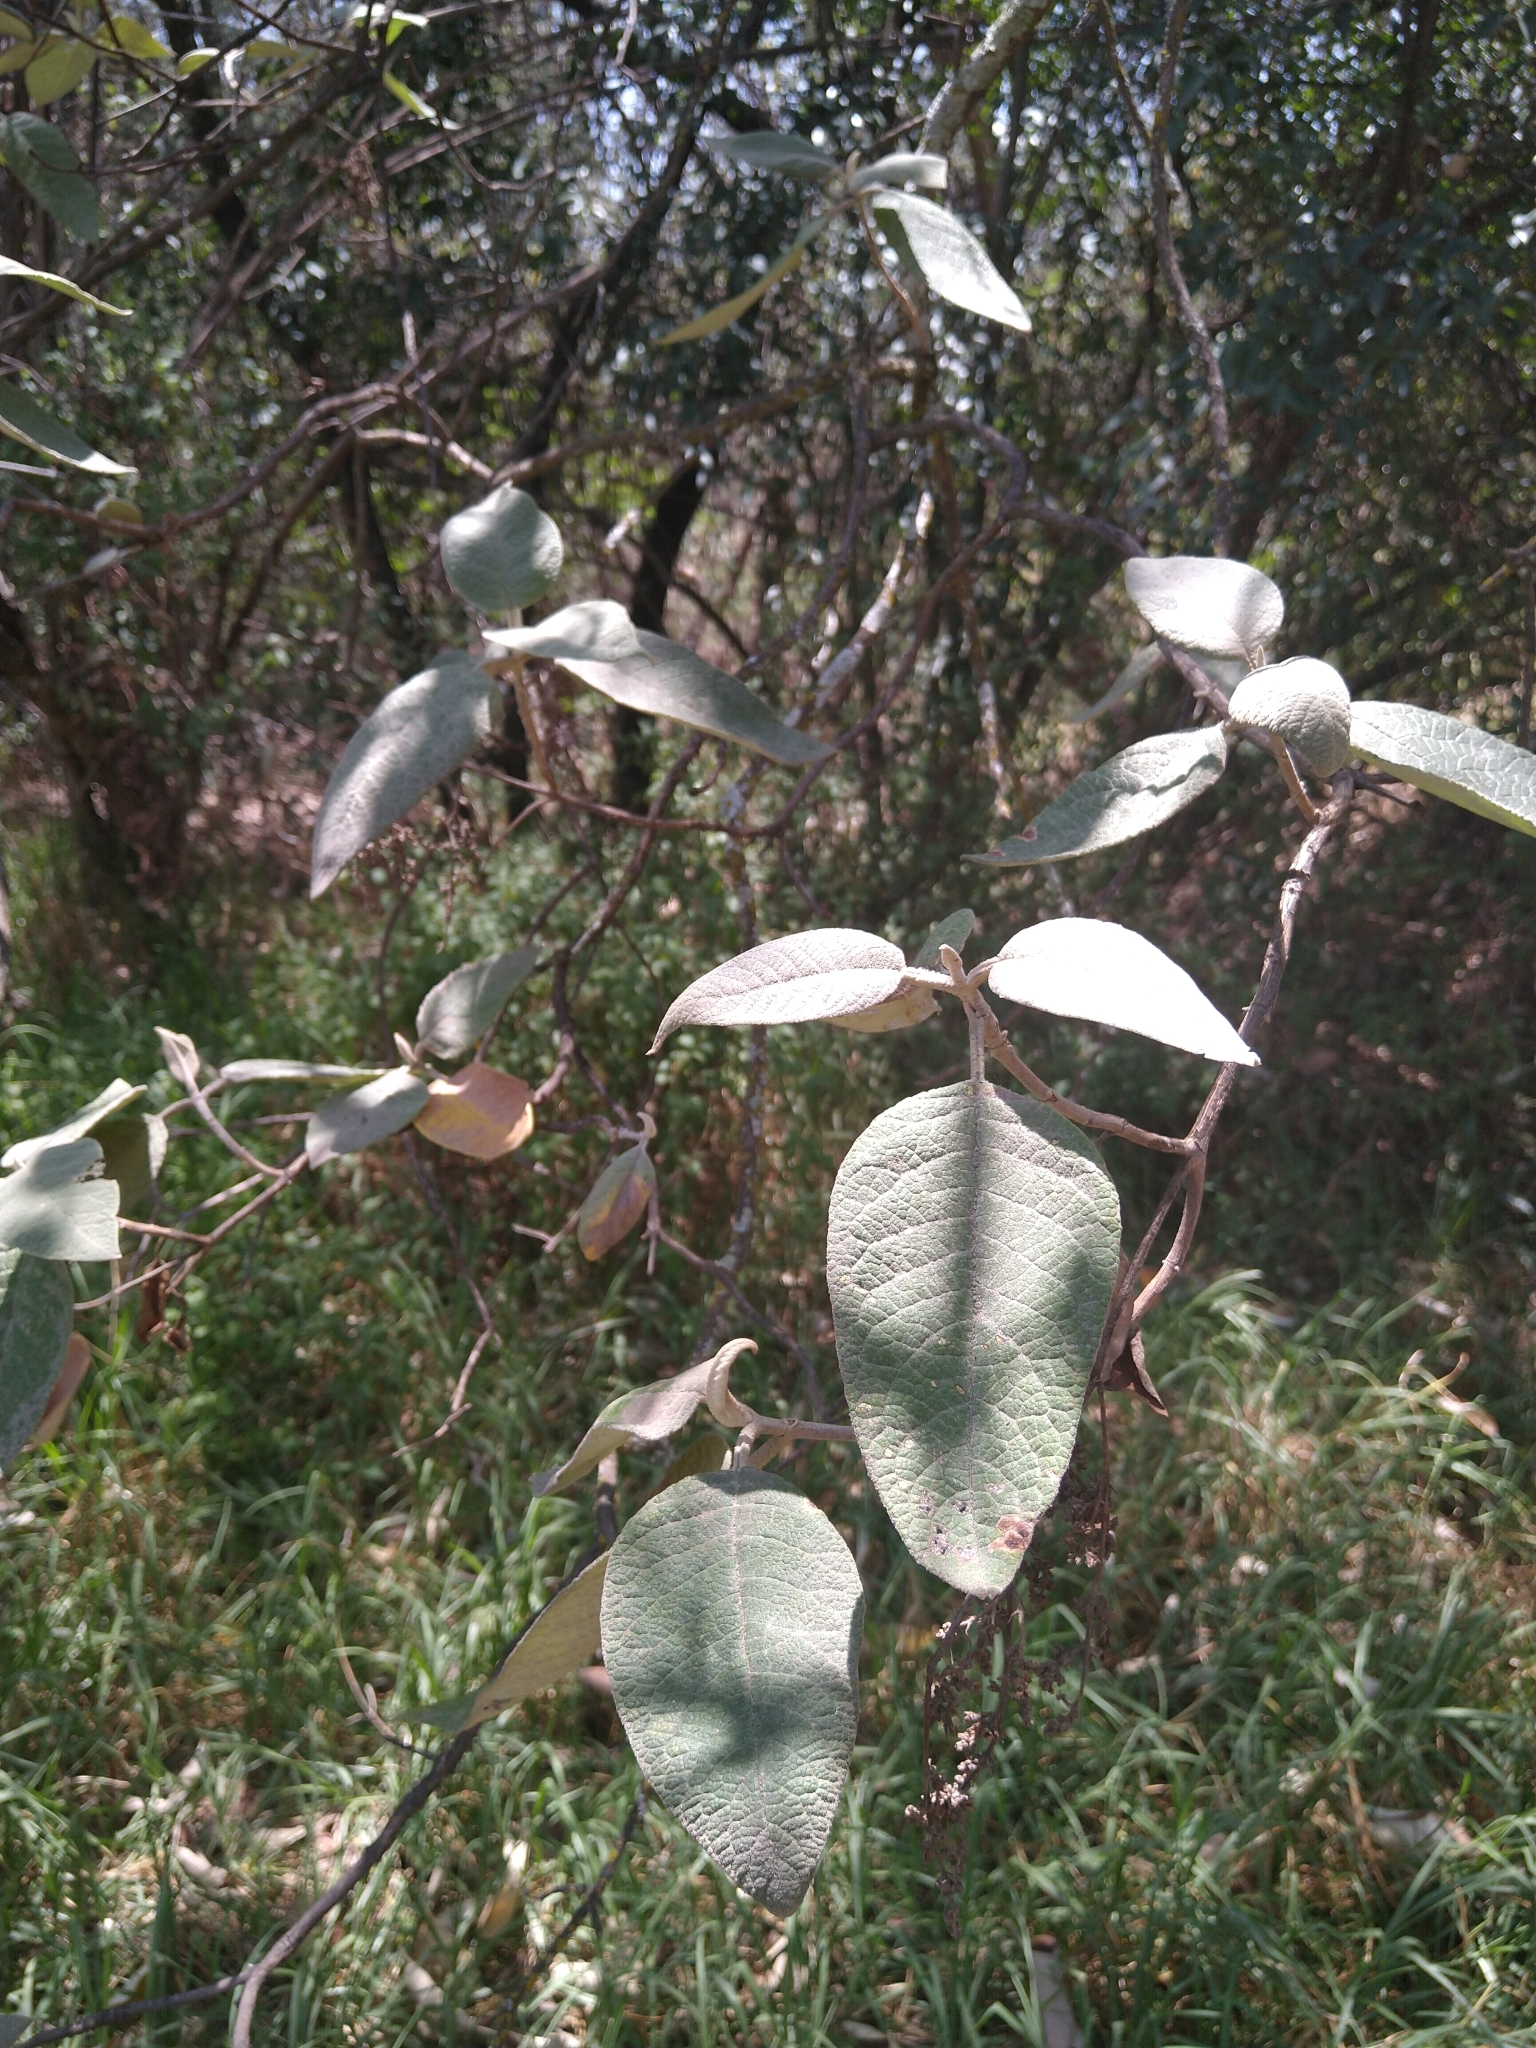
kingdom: Plantae
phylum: Tracheophyta
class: Magnoliopsida
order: Lamiales
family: Scrophulariaceae
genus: Buddleja
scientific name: Buddleja cordata
